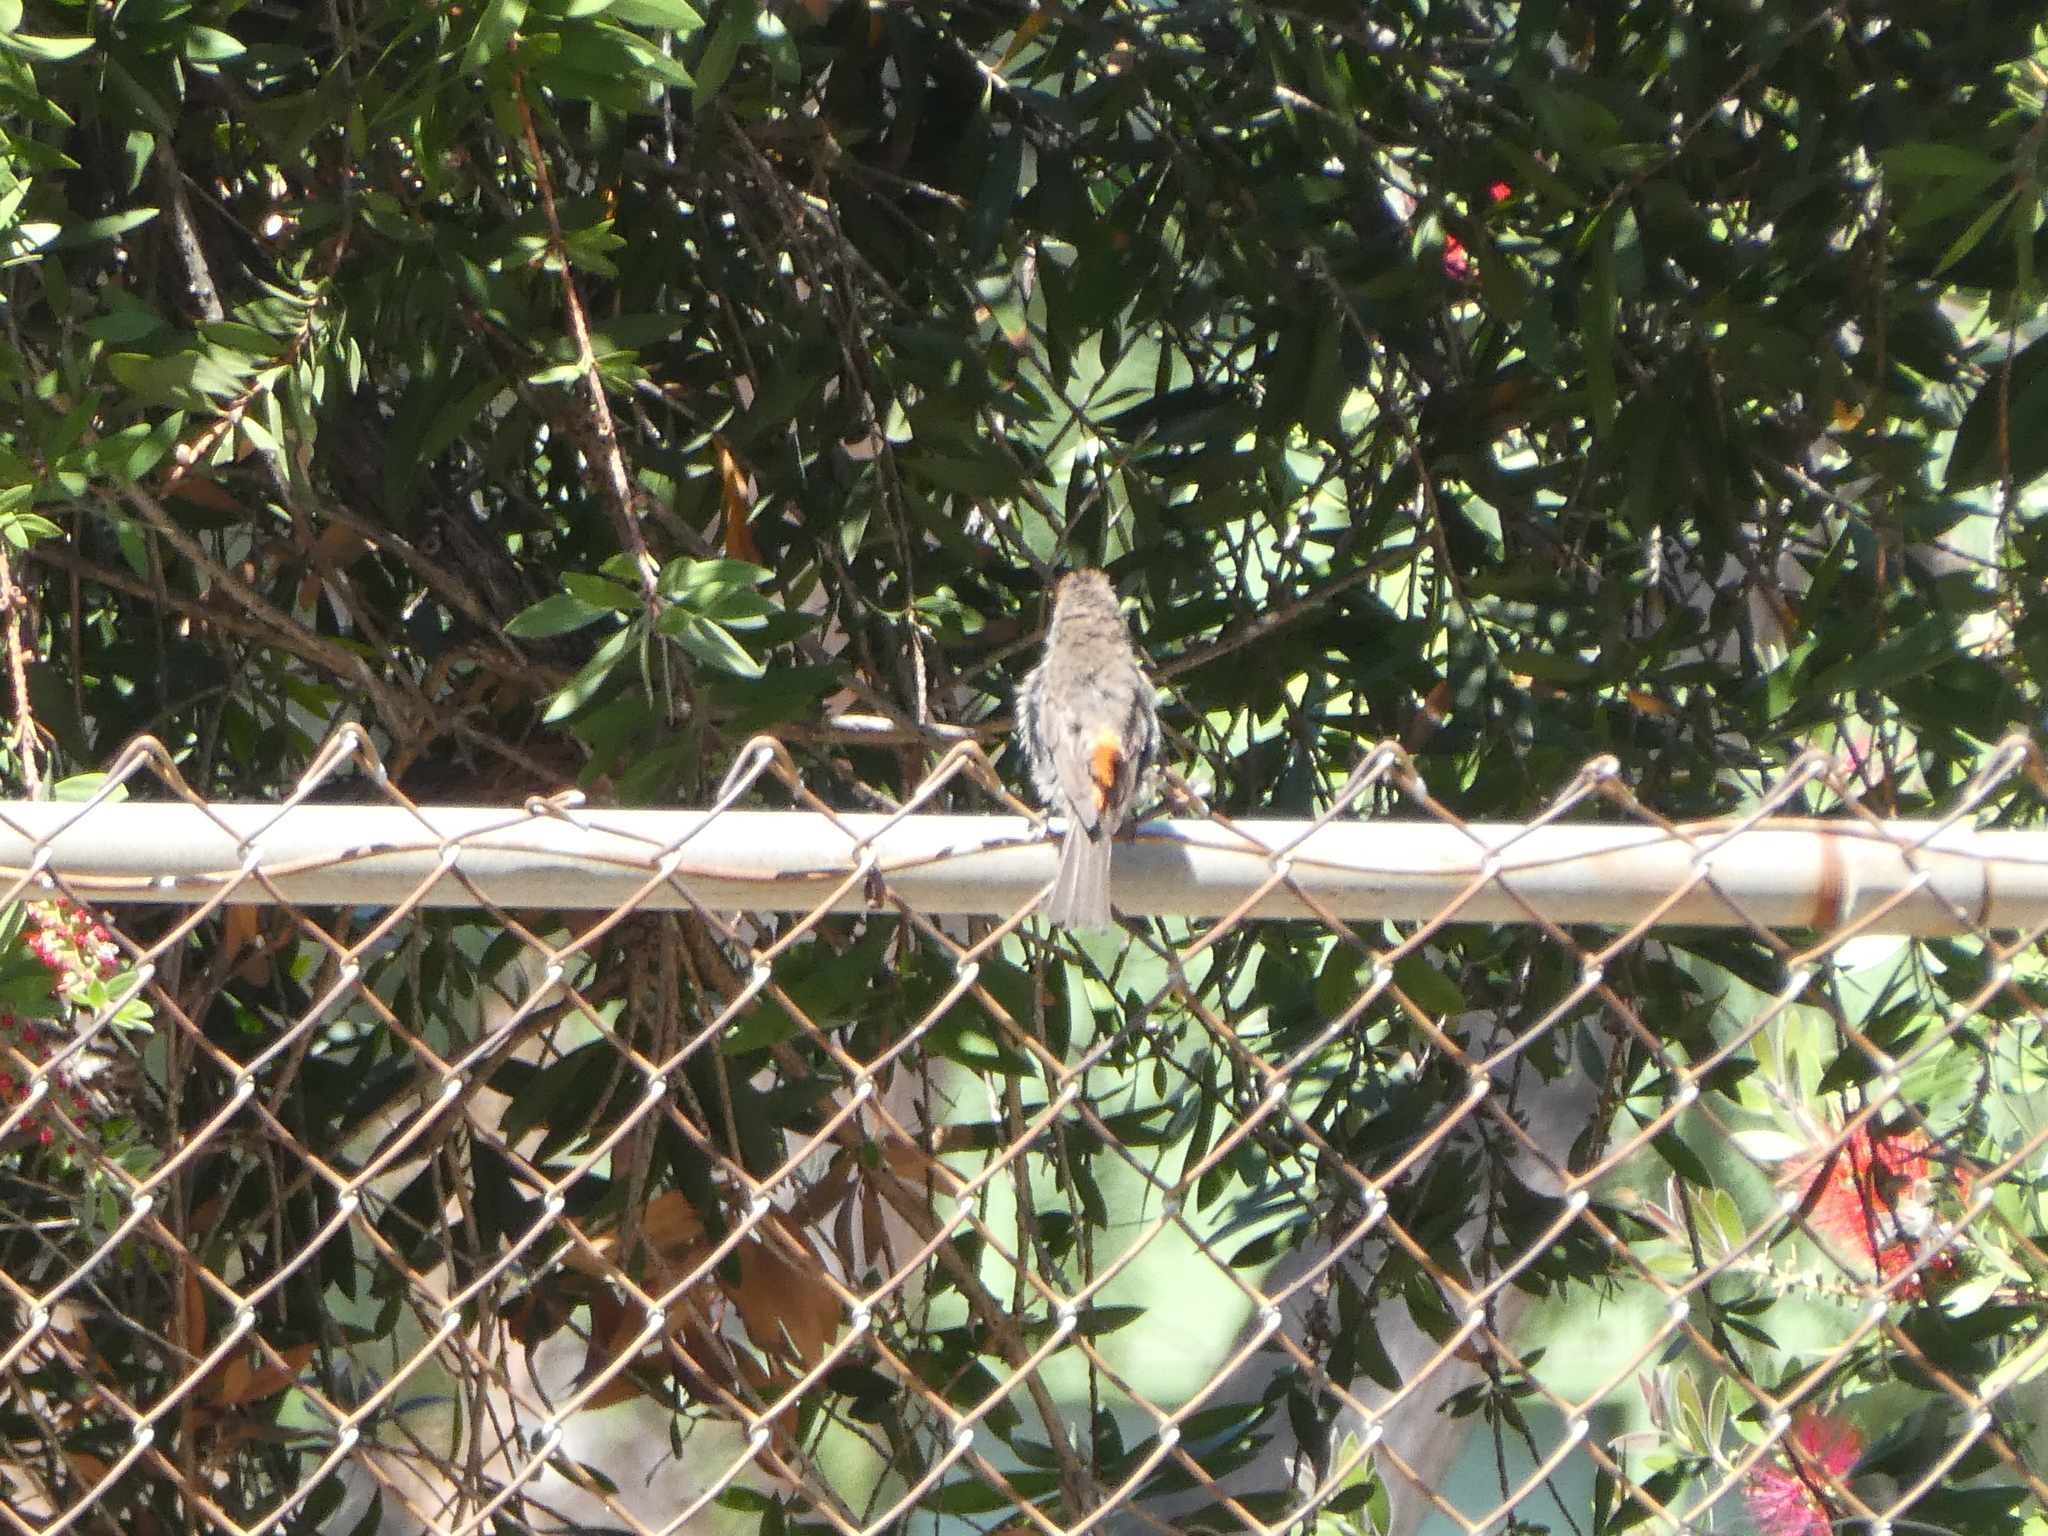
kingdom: Animalia
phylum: Chordata
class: Aves
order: Passeriformes
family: Fringillidae
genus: Haemorhous
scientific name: Haemorhous mexicanus
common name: House finch
